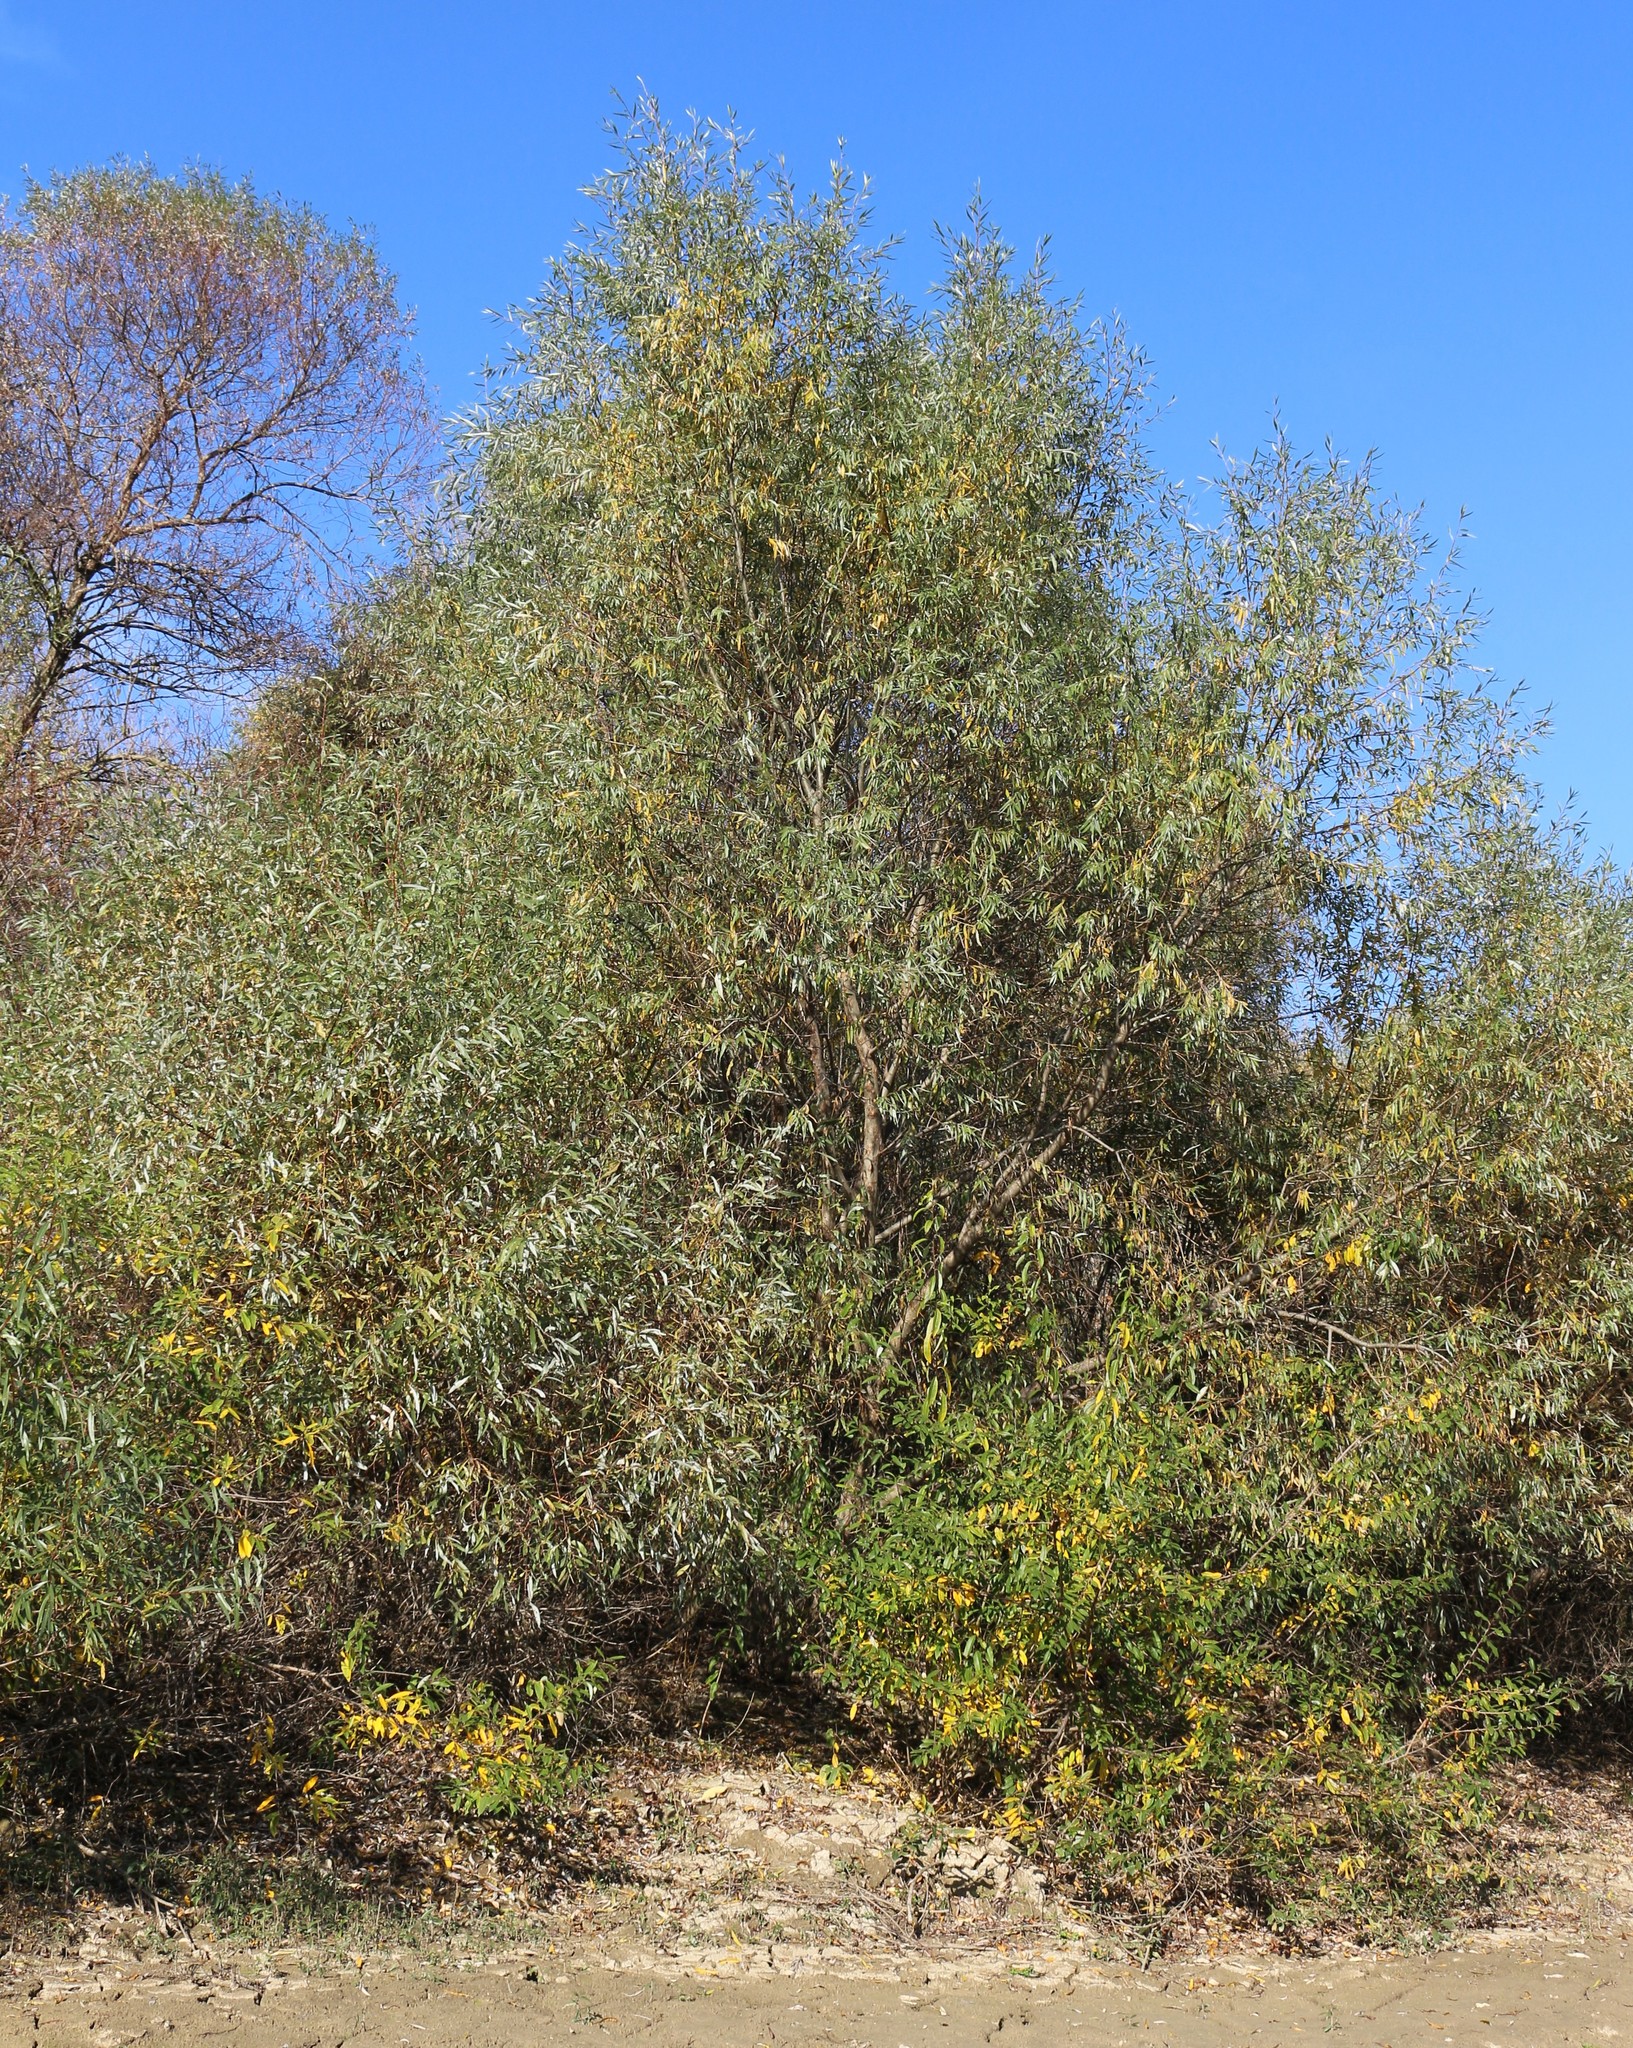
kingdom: Plantae
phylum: Tracheophyta
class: Magnoliopsida
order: Malpighiales
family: Salicaceae
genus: Salix
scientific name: Salix alba
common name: White willow
